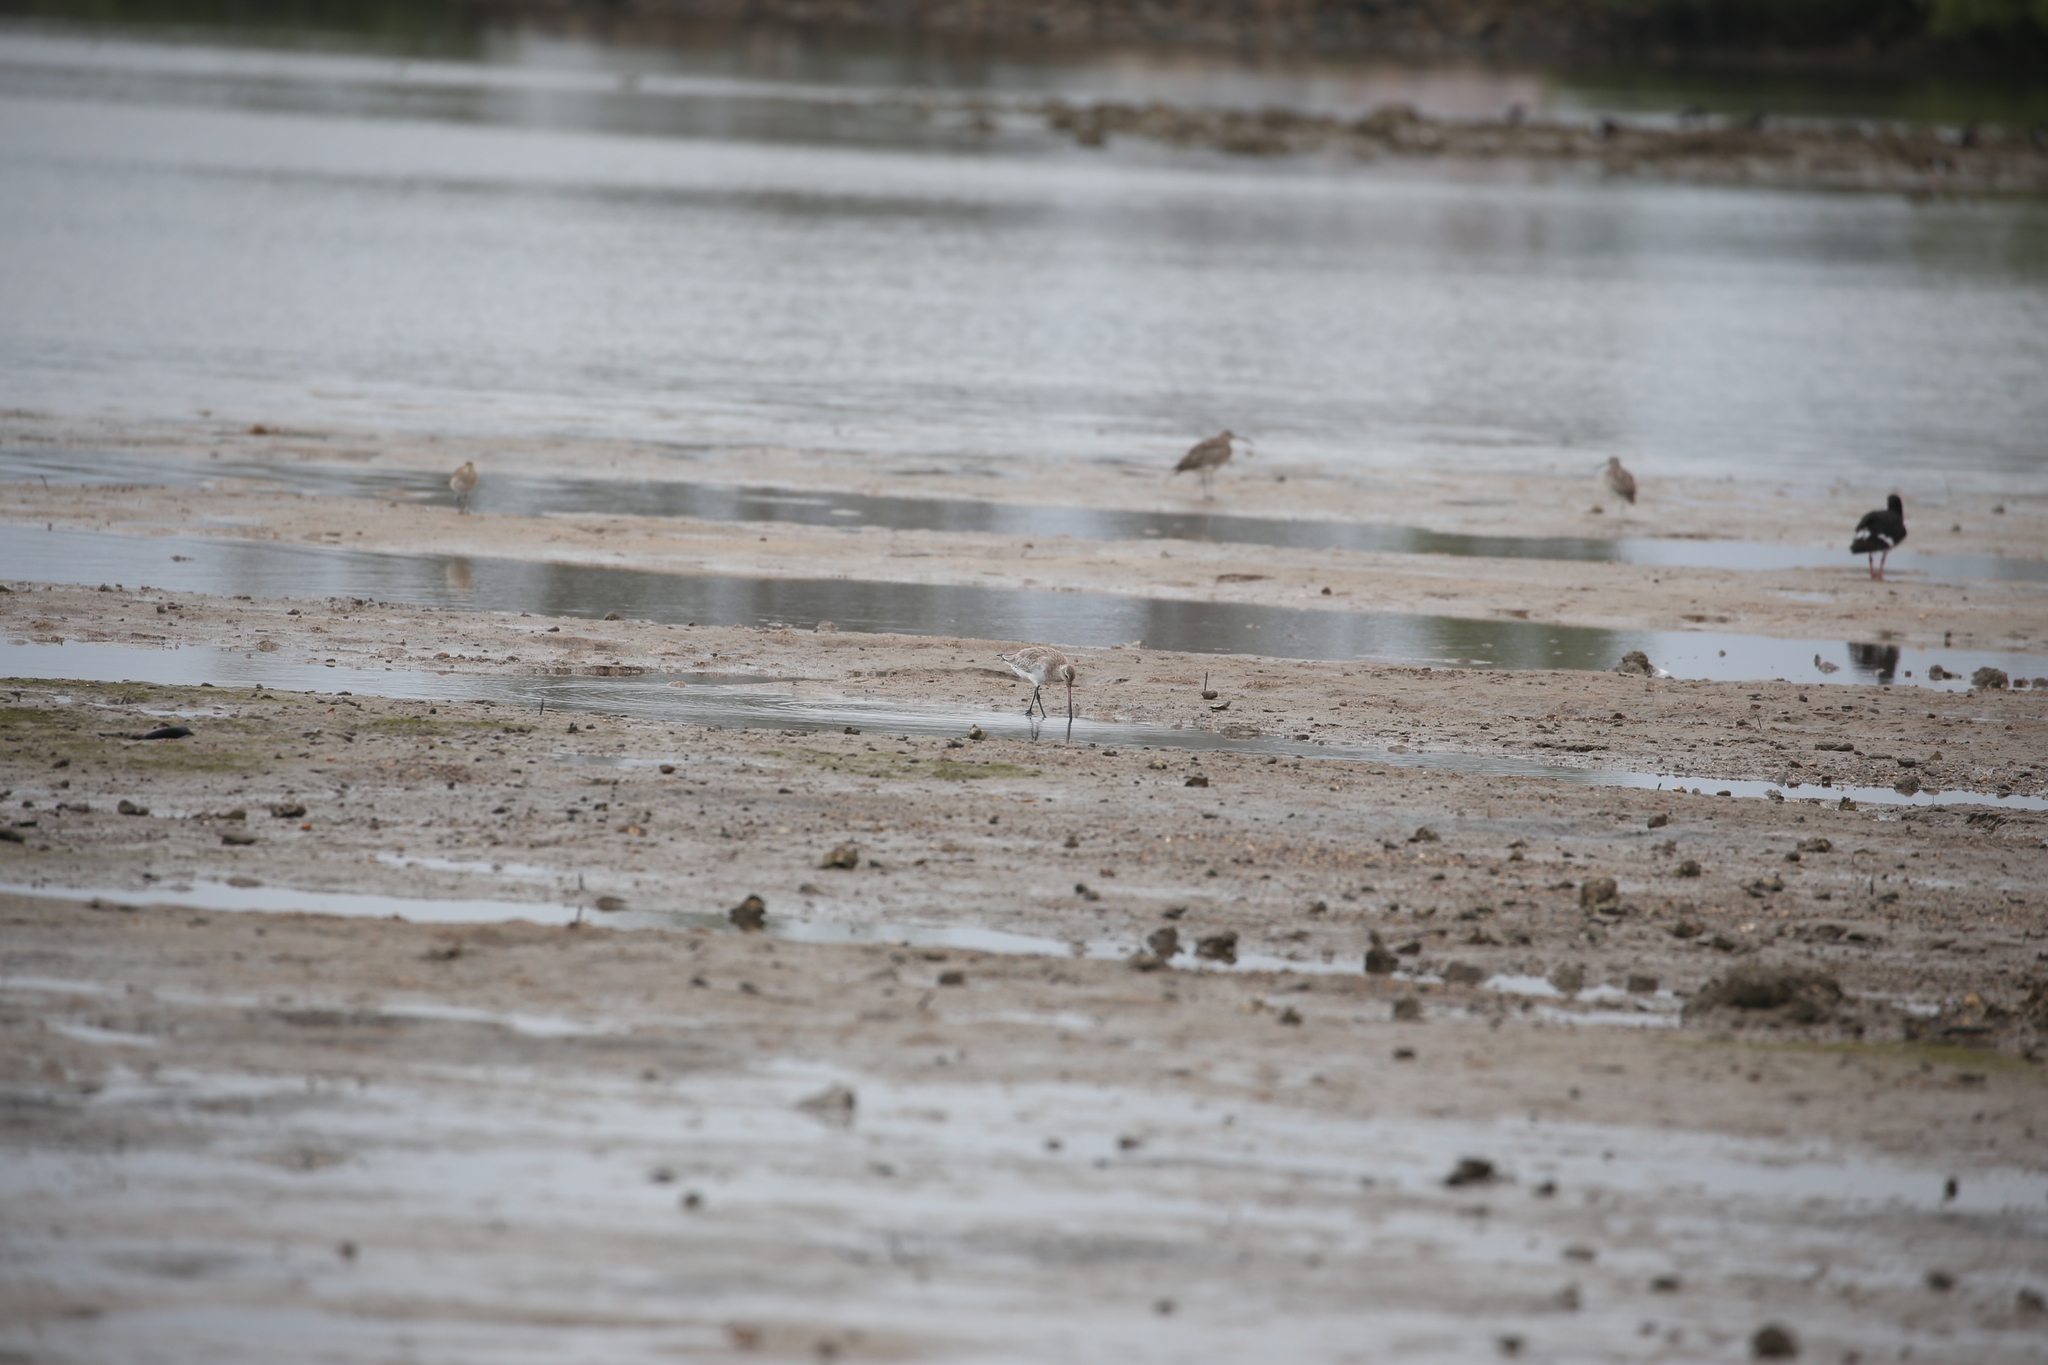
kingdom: Animalia
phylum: Chordata
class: Aves
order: Charadriiformes
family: Scolopacidae
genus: Limosa
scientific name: Limosa lapponica
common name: Bar-tailed godwit
